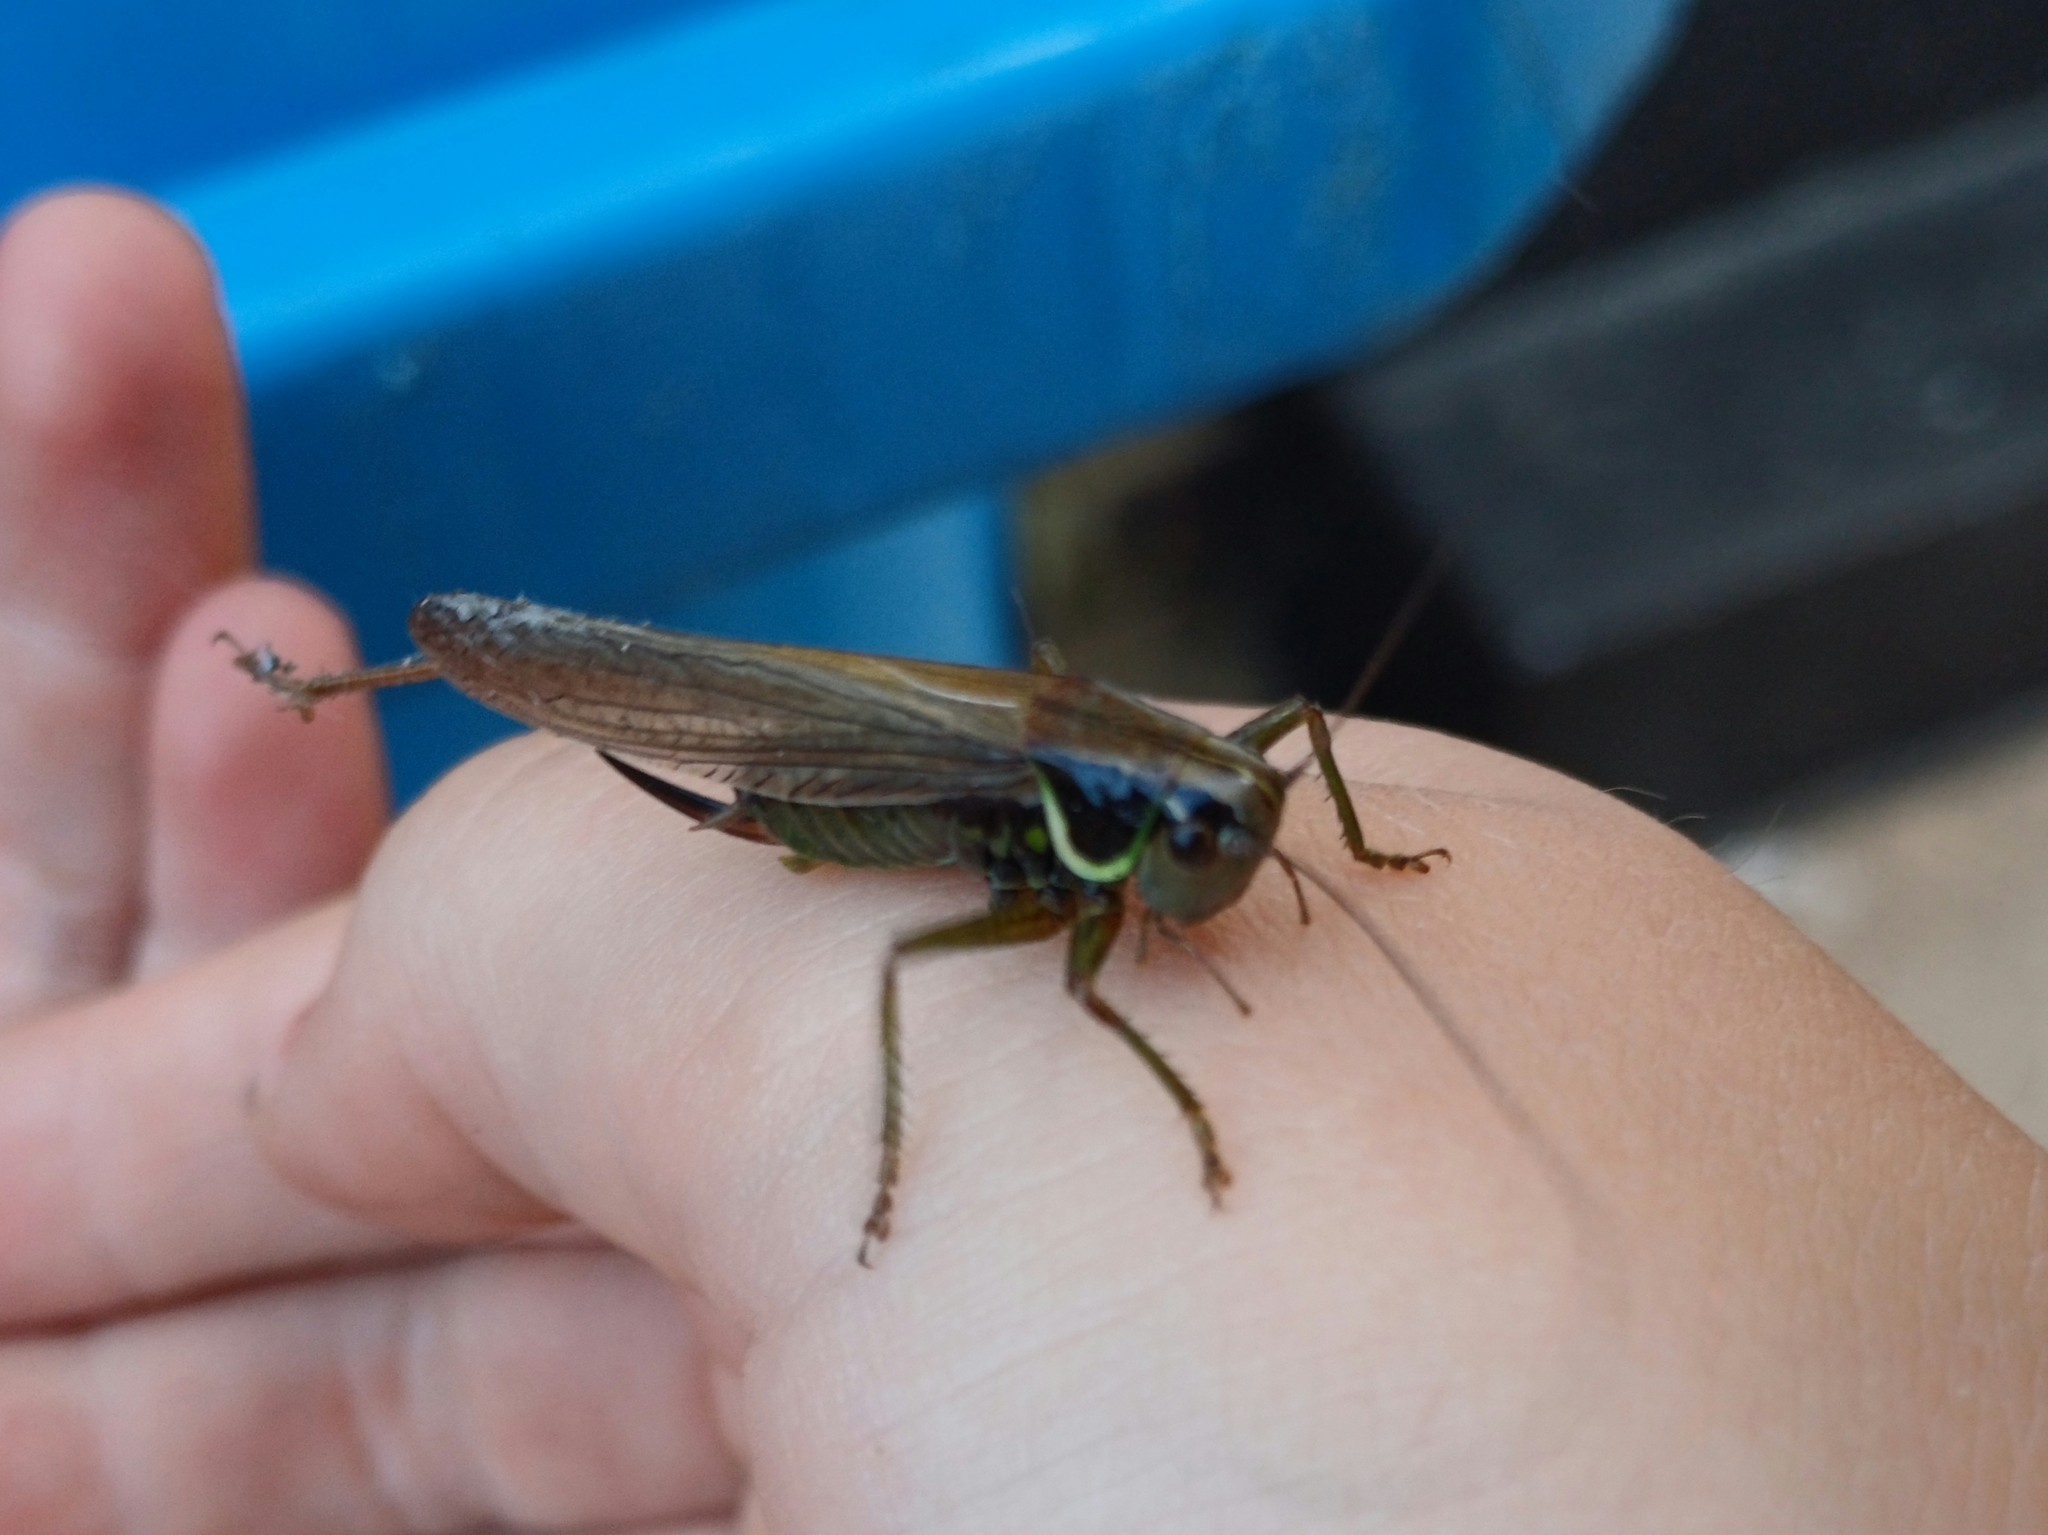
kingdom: Animalia
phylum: Arthropoda
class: Insecta
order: Orthoptera
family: Tettigoniidae
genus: Roeseliana
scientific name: Roeseliana roeselii
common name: Roesel's bush cricket
